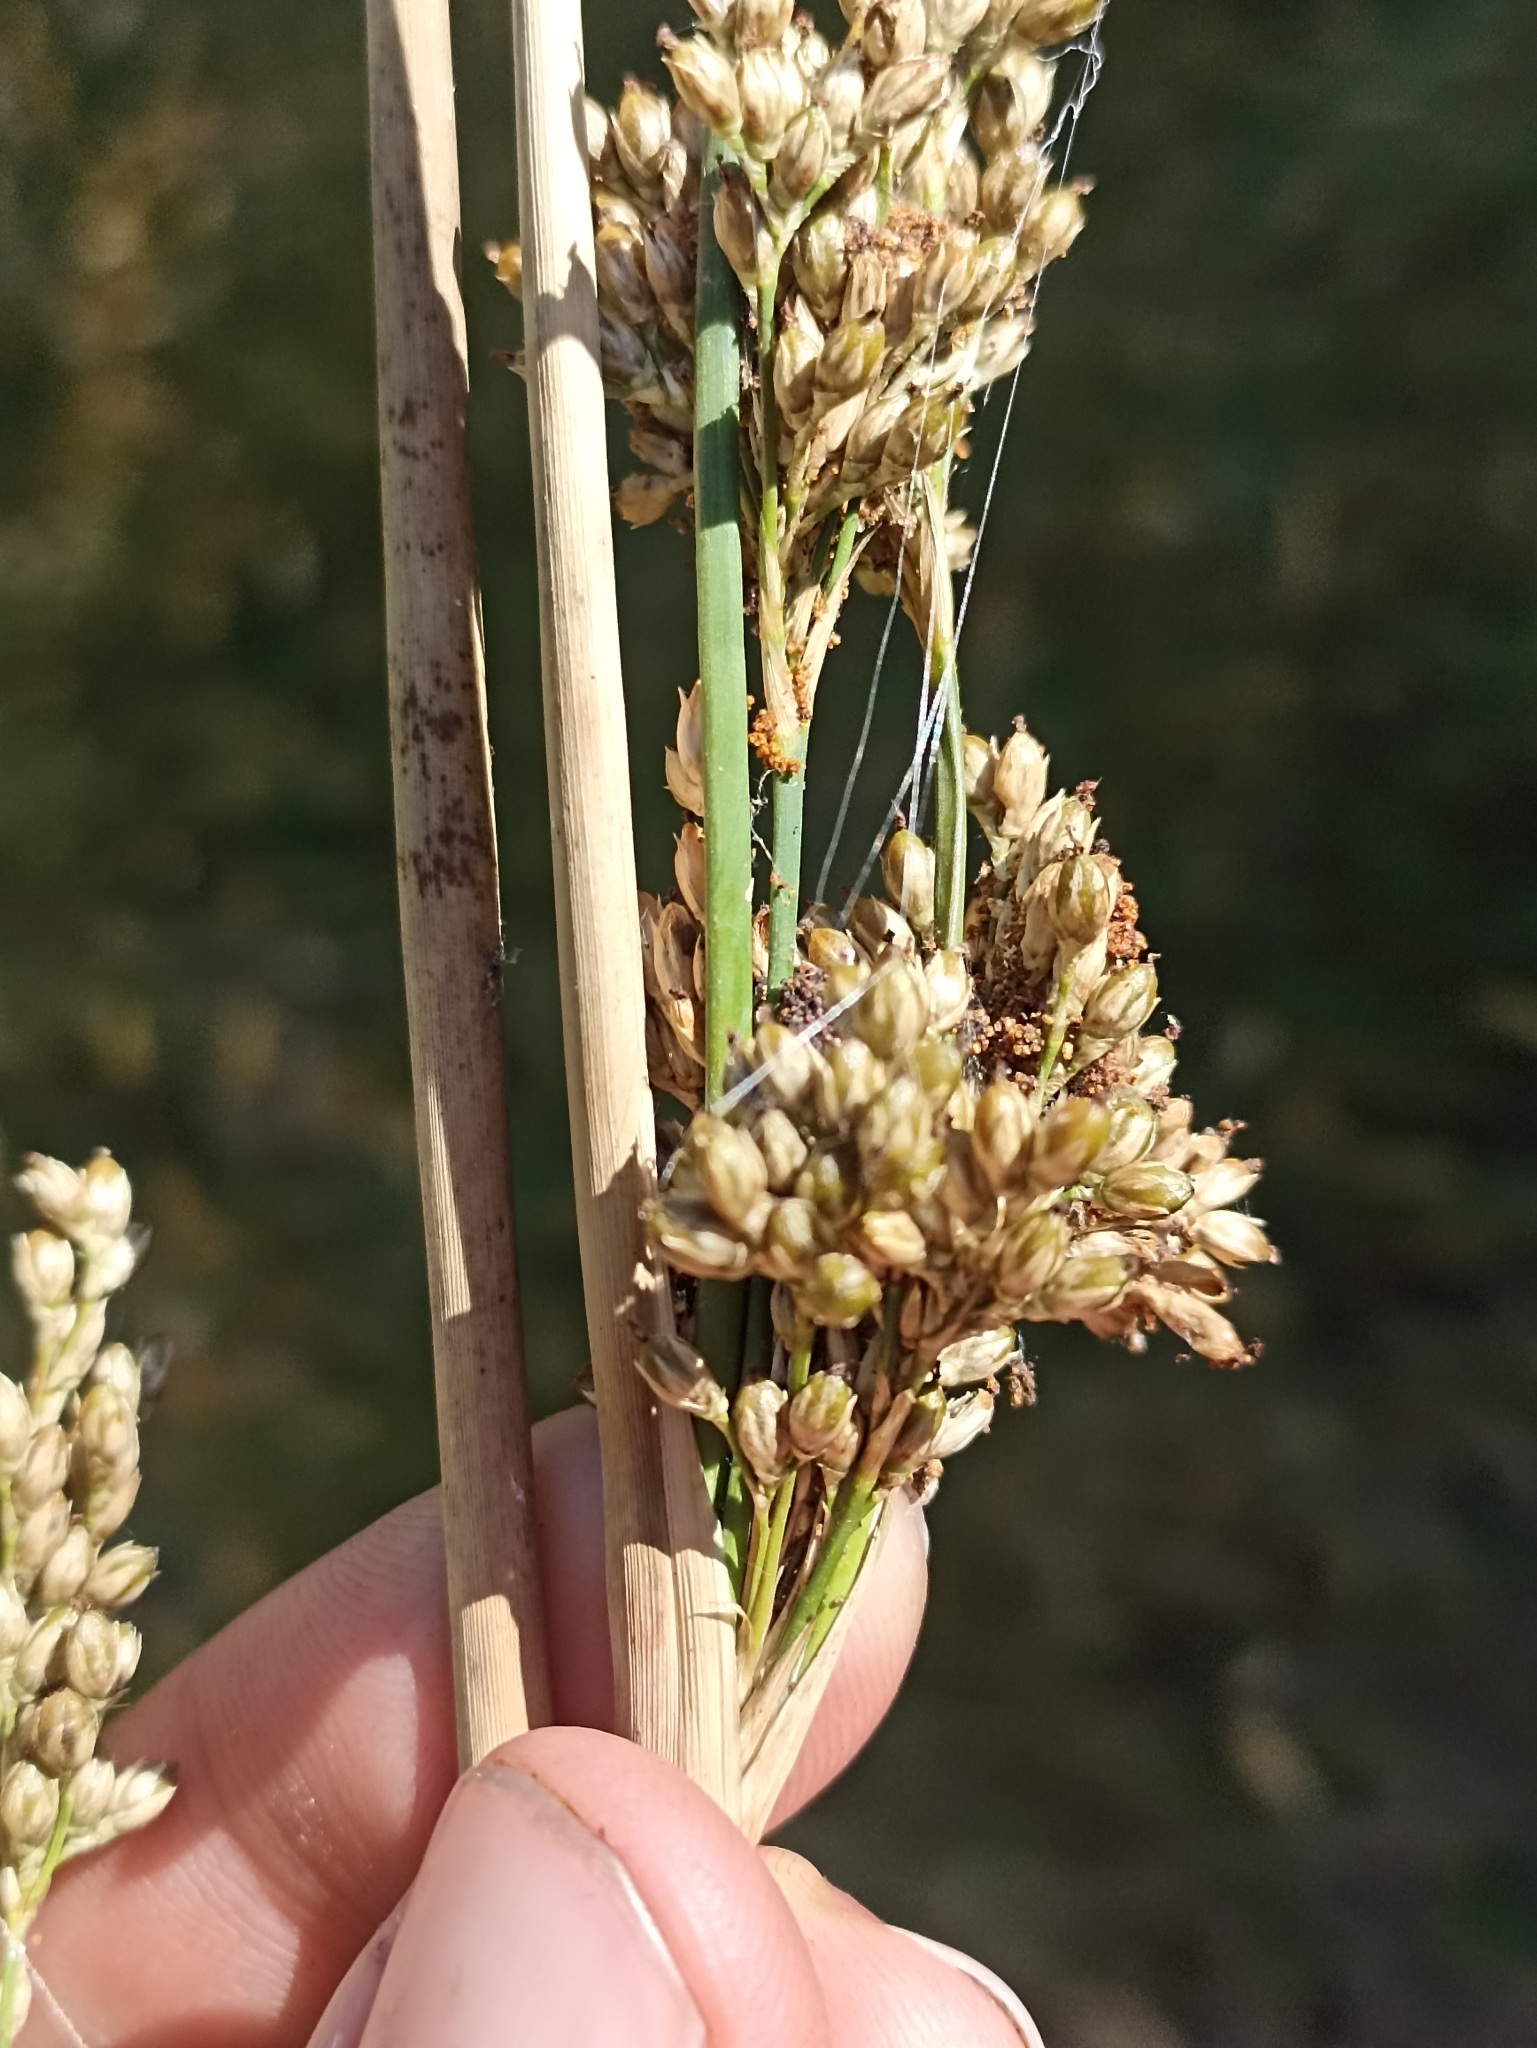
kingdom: Plantae
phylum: Tracheophyta
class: Liliopsida
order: Poales
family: Juncaceae
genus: Juncus
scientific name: Juncus pallidus
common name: Great soft-rush
